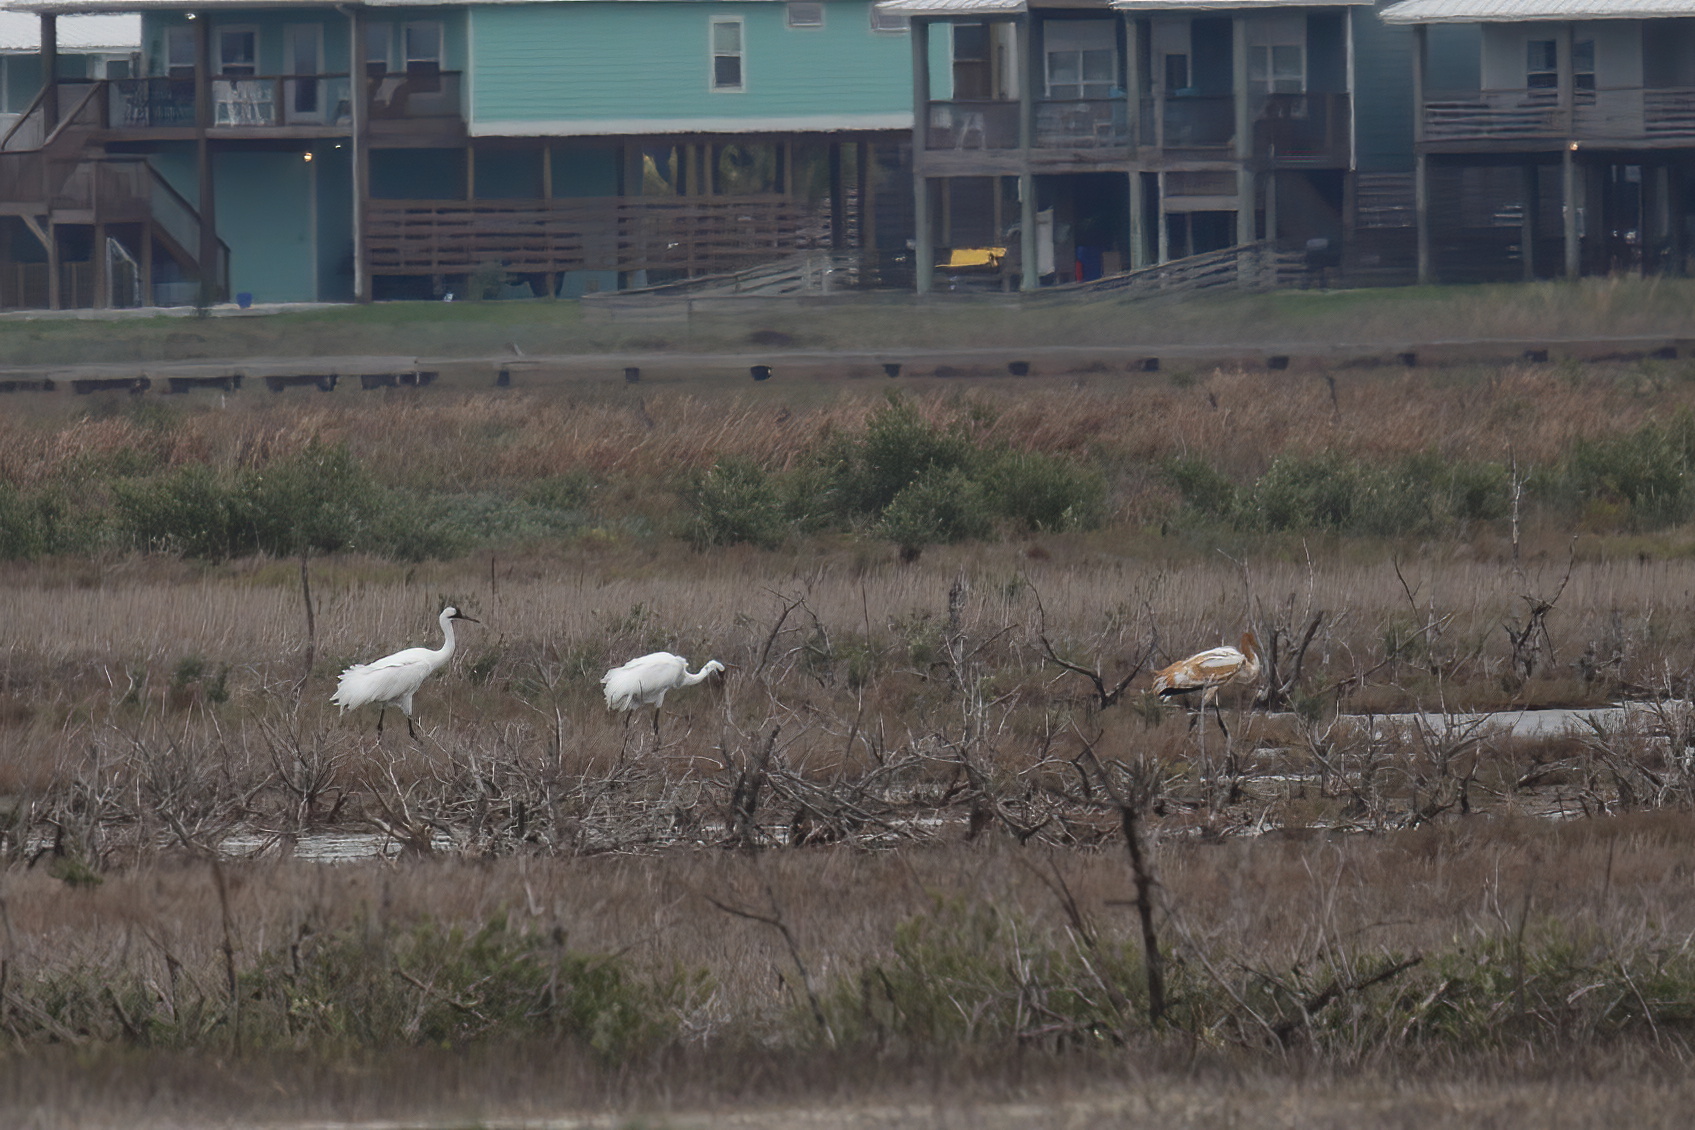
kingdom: Animalia
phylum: Chordata
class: Aves
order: Gruiformes
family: Gruidae
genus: Grus
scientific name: Grus americana
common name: Whooping crane
